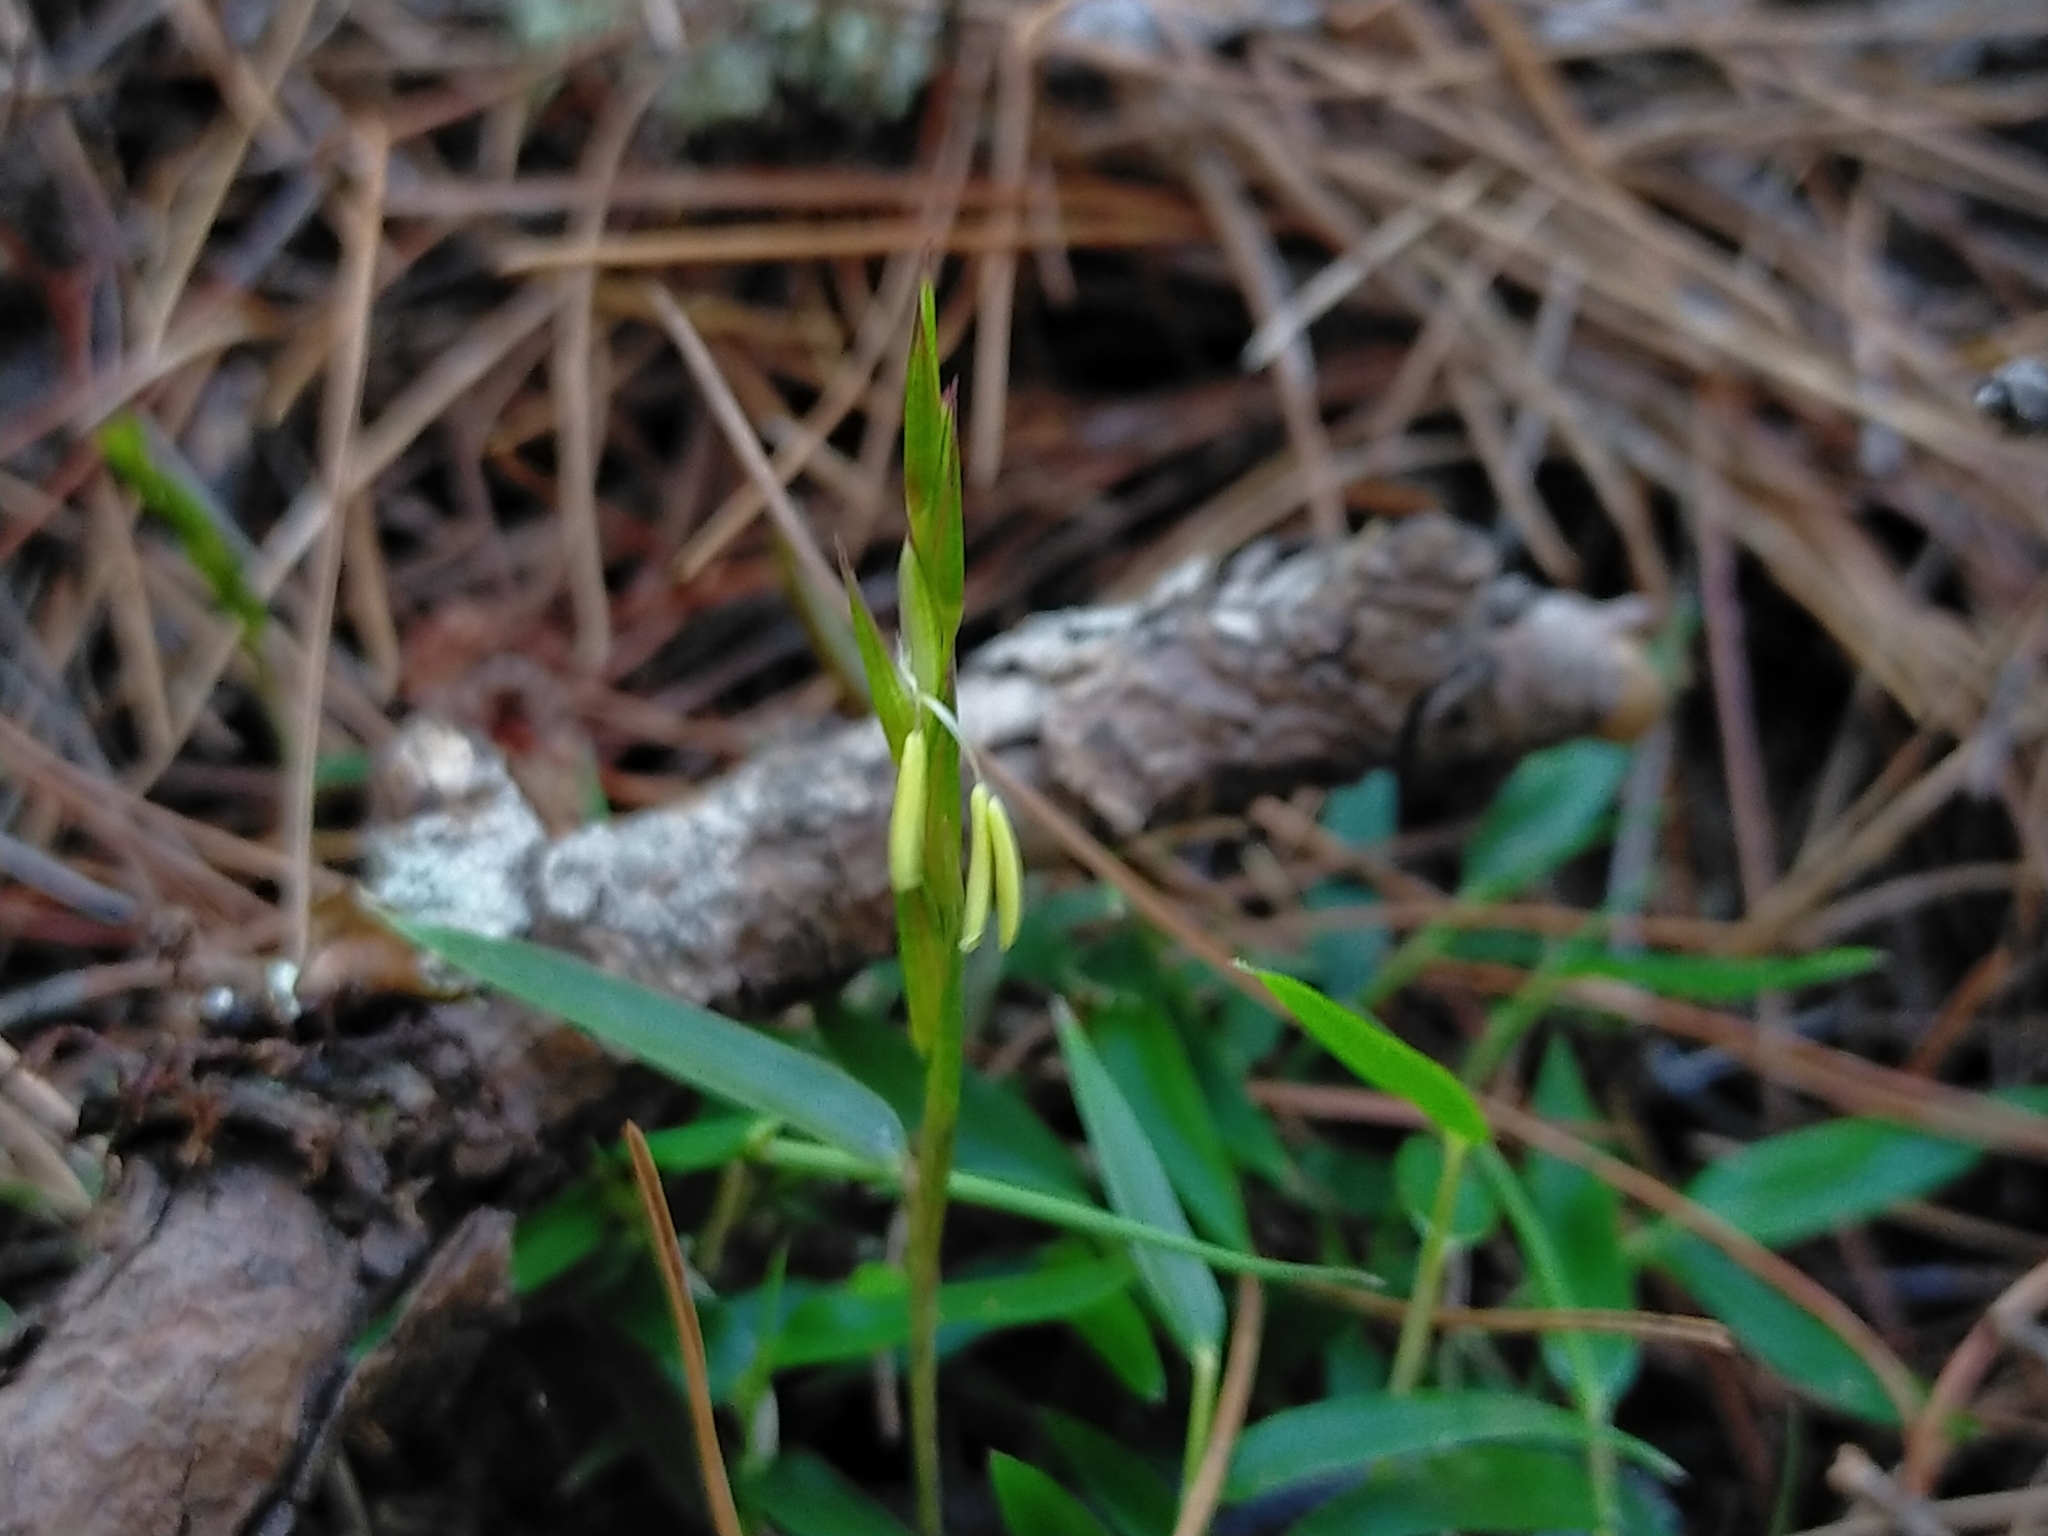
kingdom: Plantae
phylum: Tracheophyta
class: Liliopsida
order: Poales
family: Poaceae
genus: Yushania
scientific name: Yushania niitakayamensis
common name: Yushan cane
